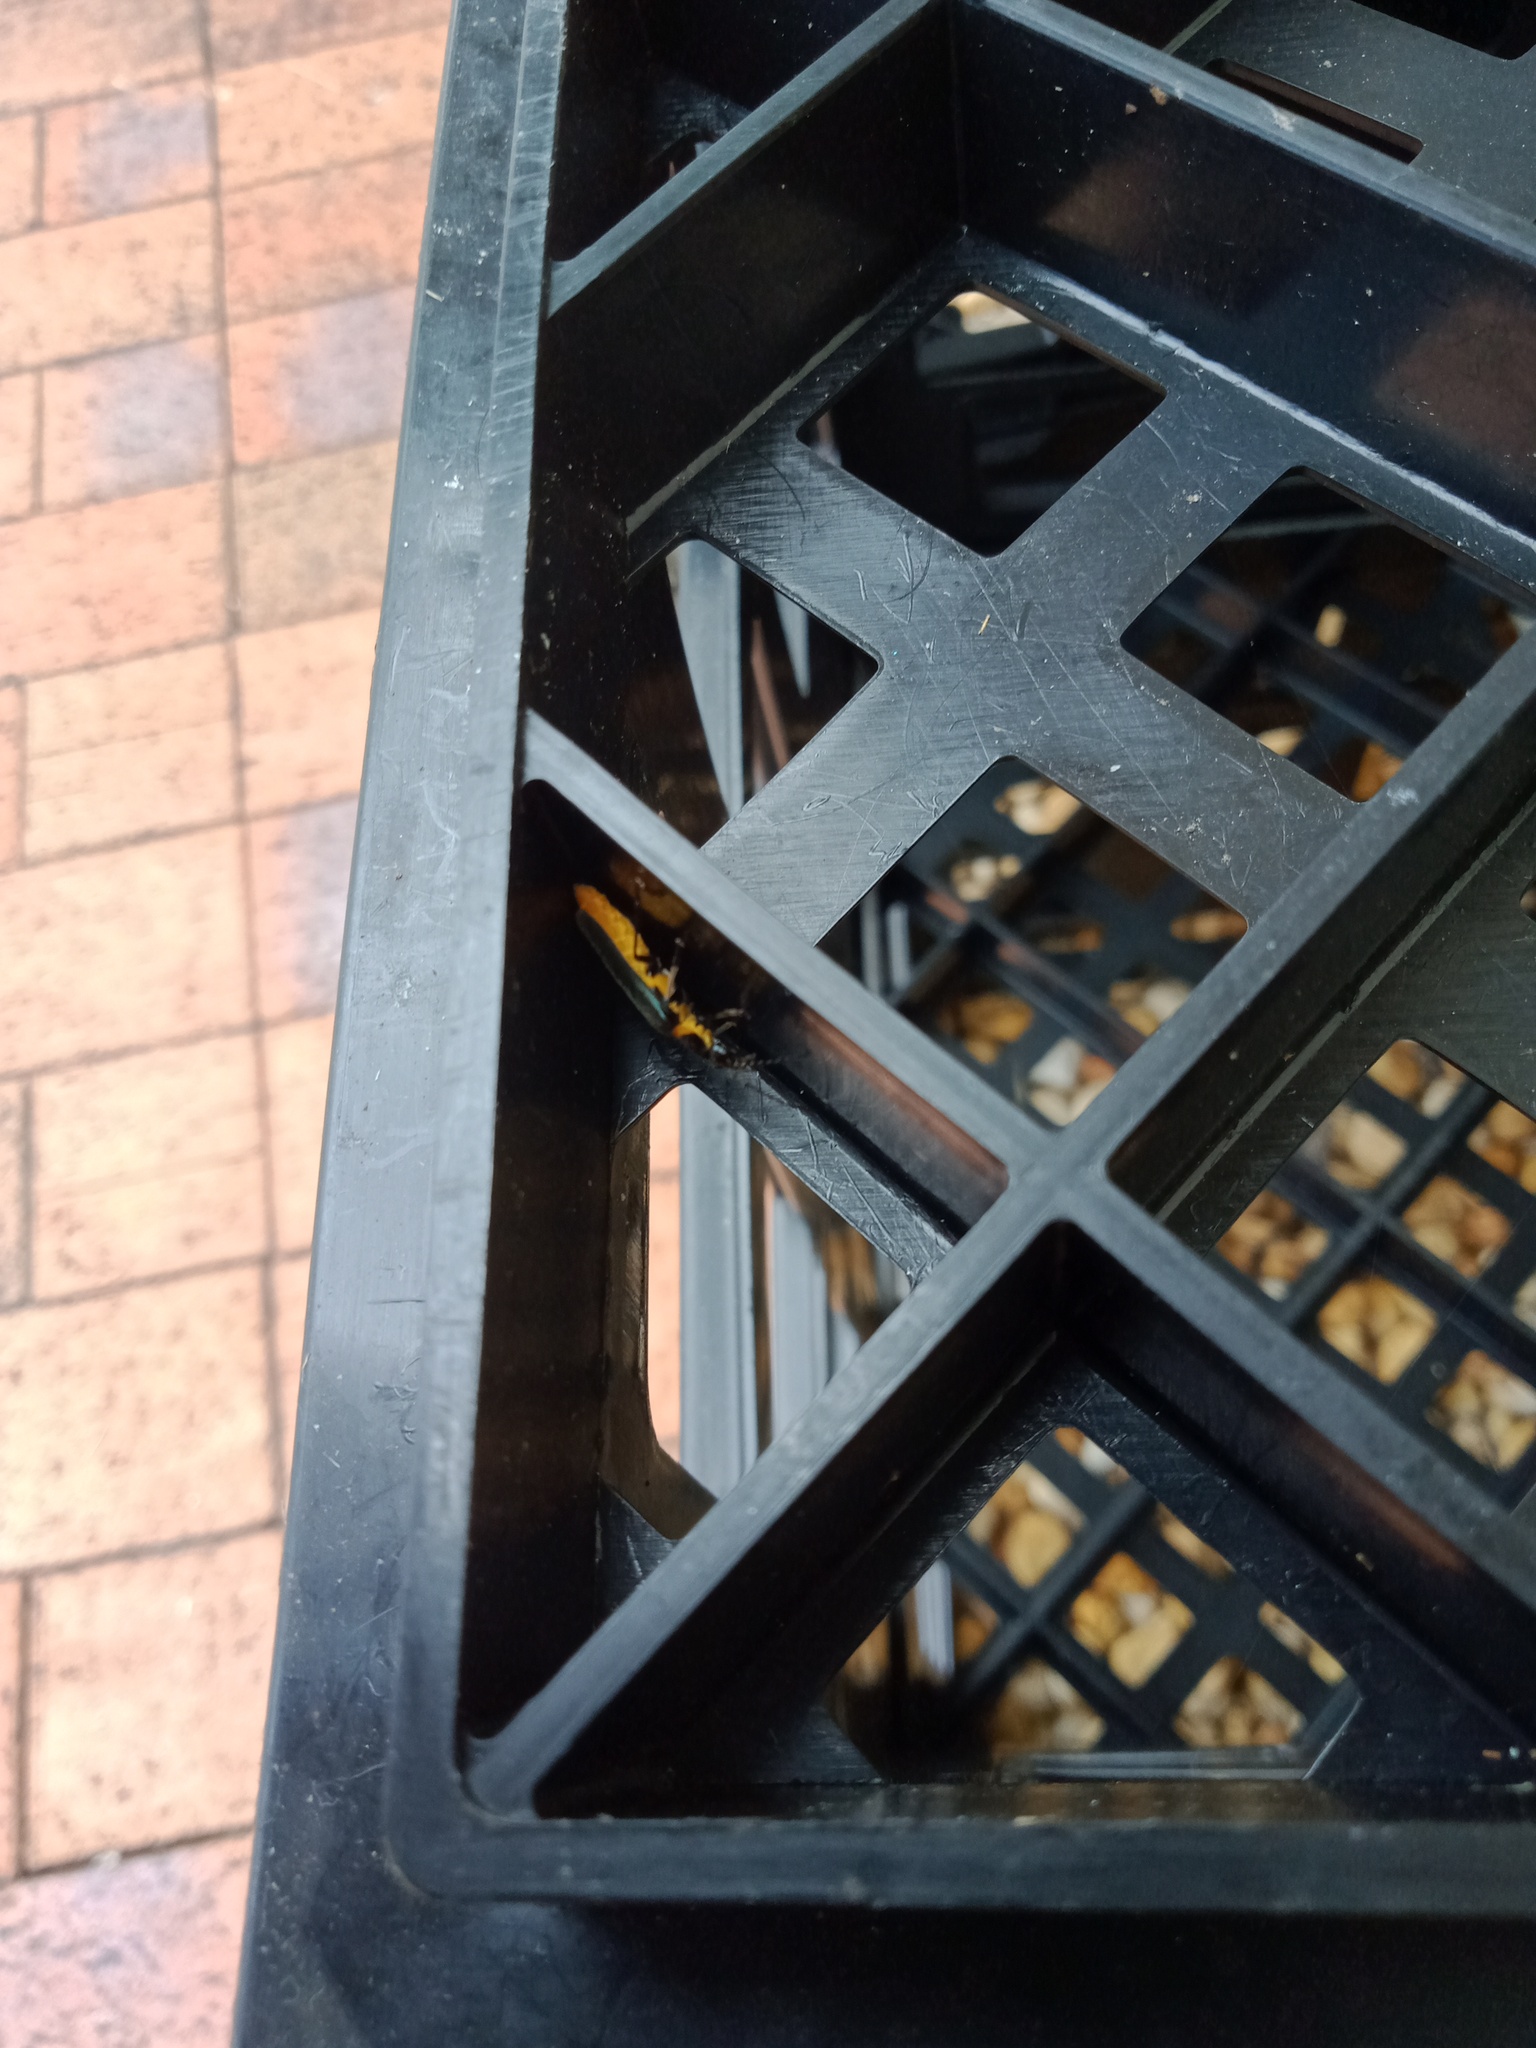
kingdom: Animalia
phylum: Arthropoda
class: Insecta
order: Coleoptera
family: Cantharidae
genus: Chauliognathus
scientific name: Chauliognathus
